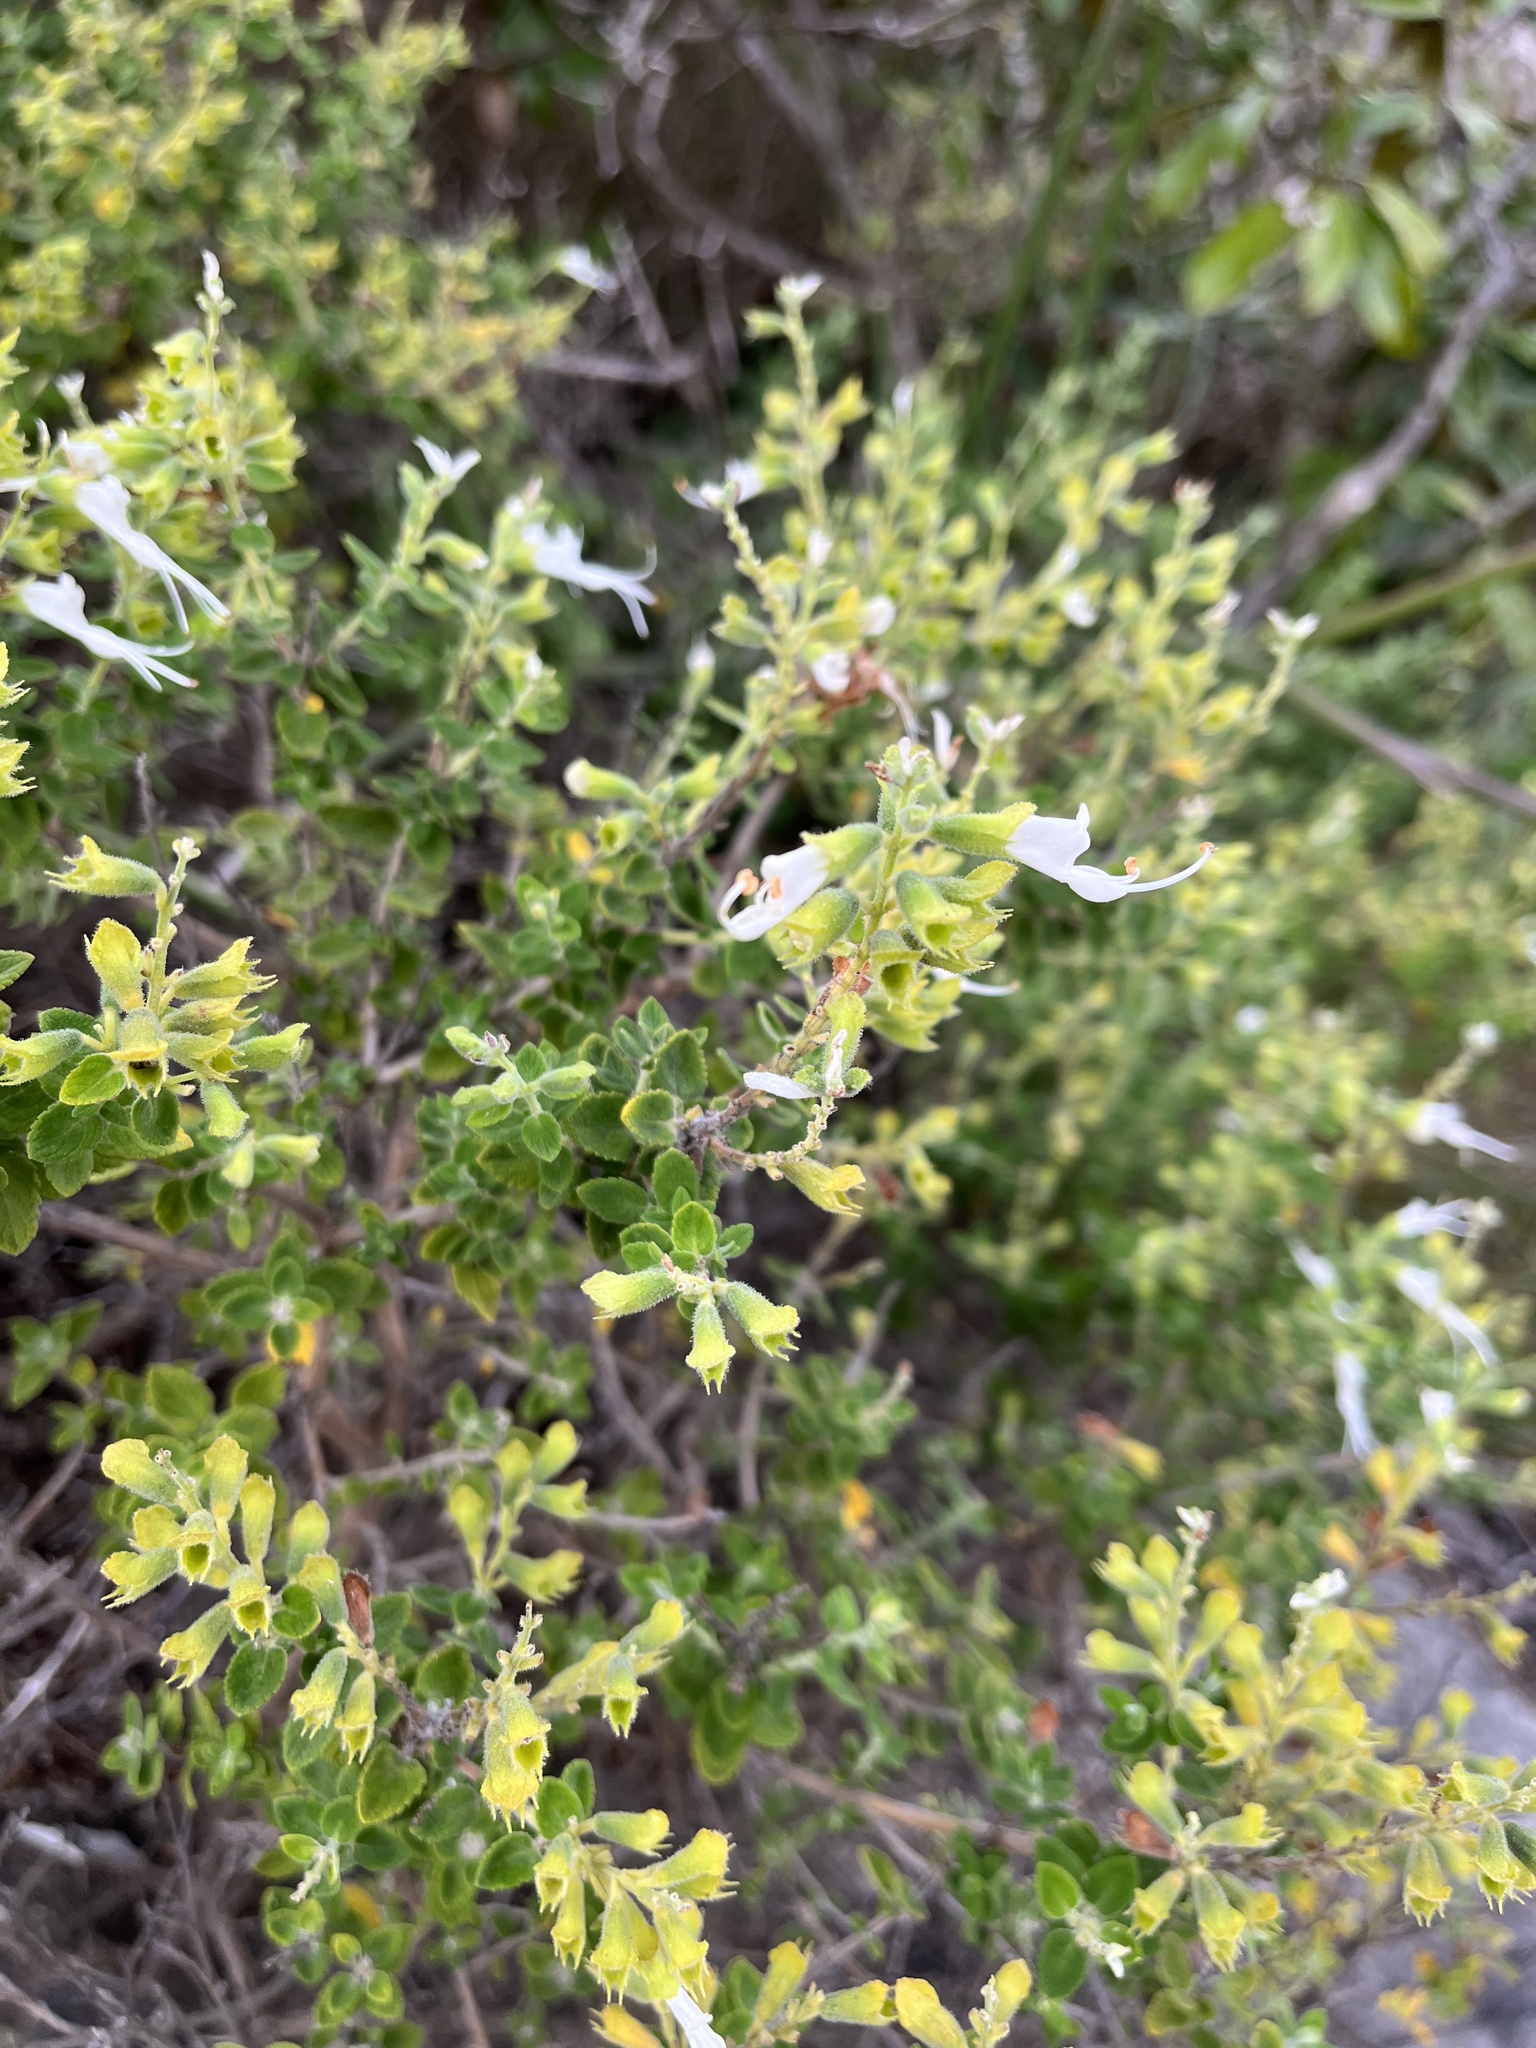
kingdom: Plantae
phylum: Tracheophyta
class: Magnoliopsida
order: Lamiales
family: Lamiaceae
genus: Syncolostemon
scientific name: Syncolostemon parvifolius
